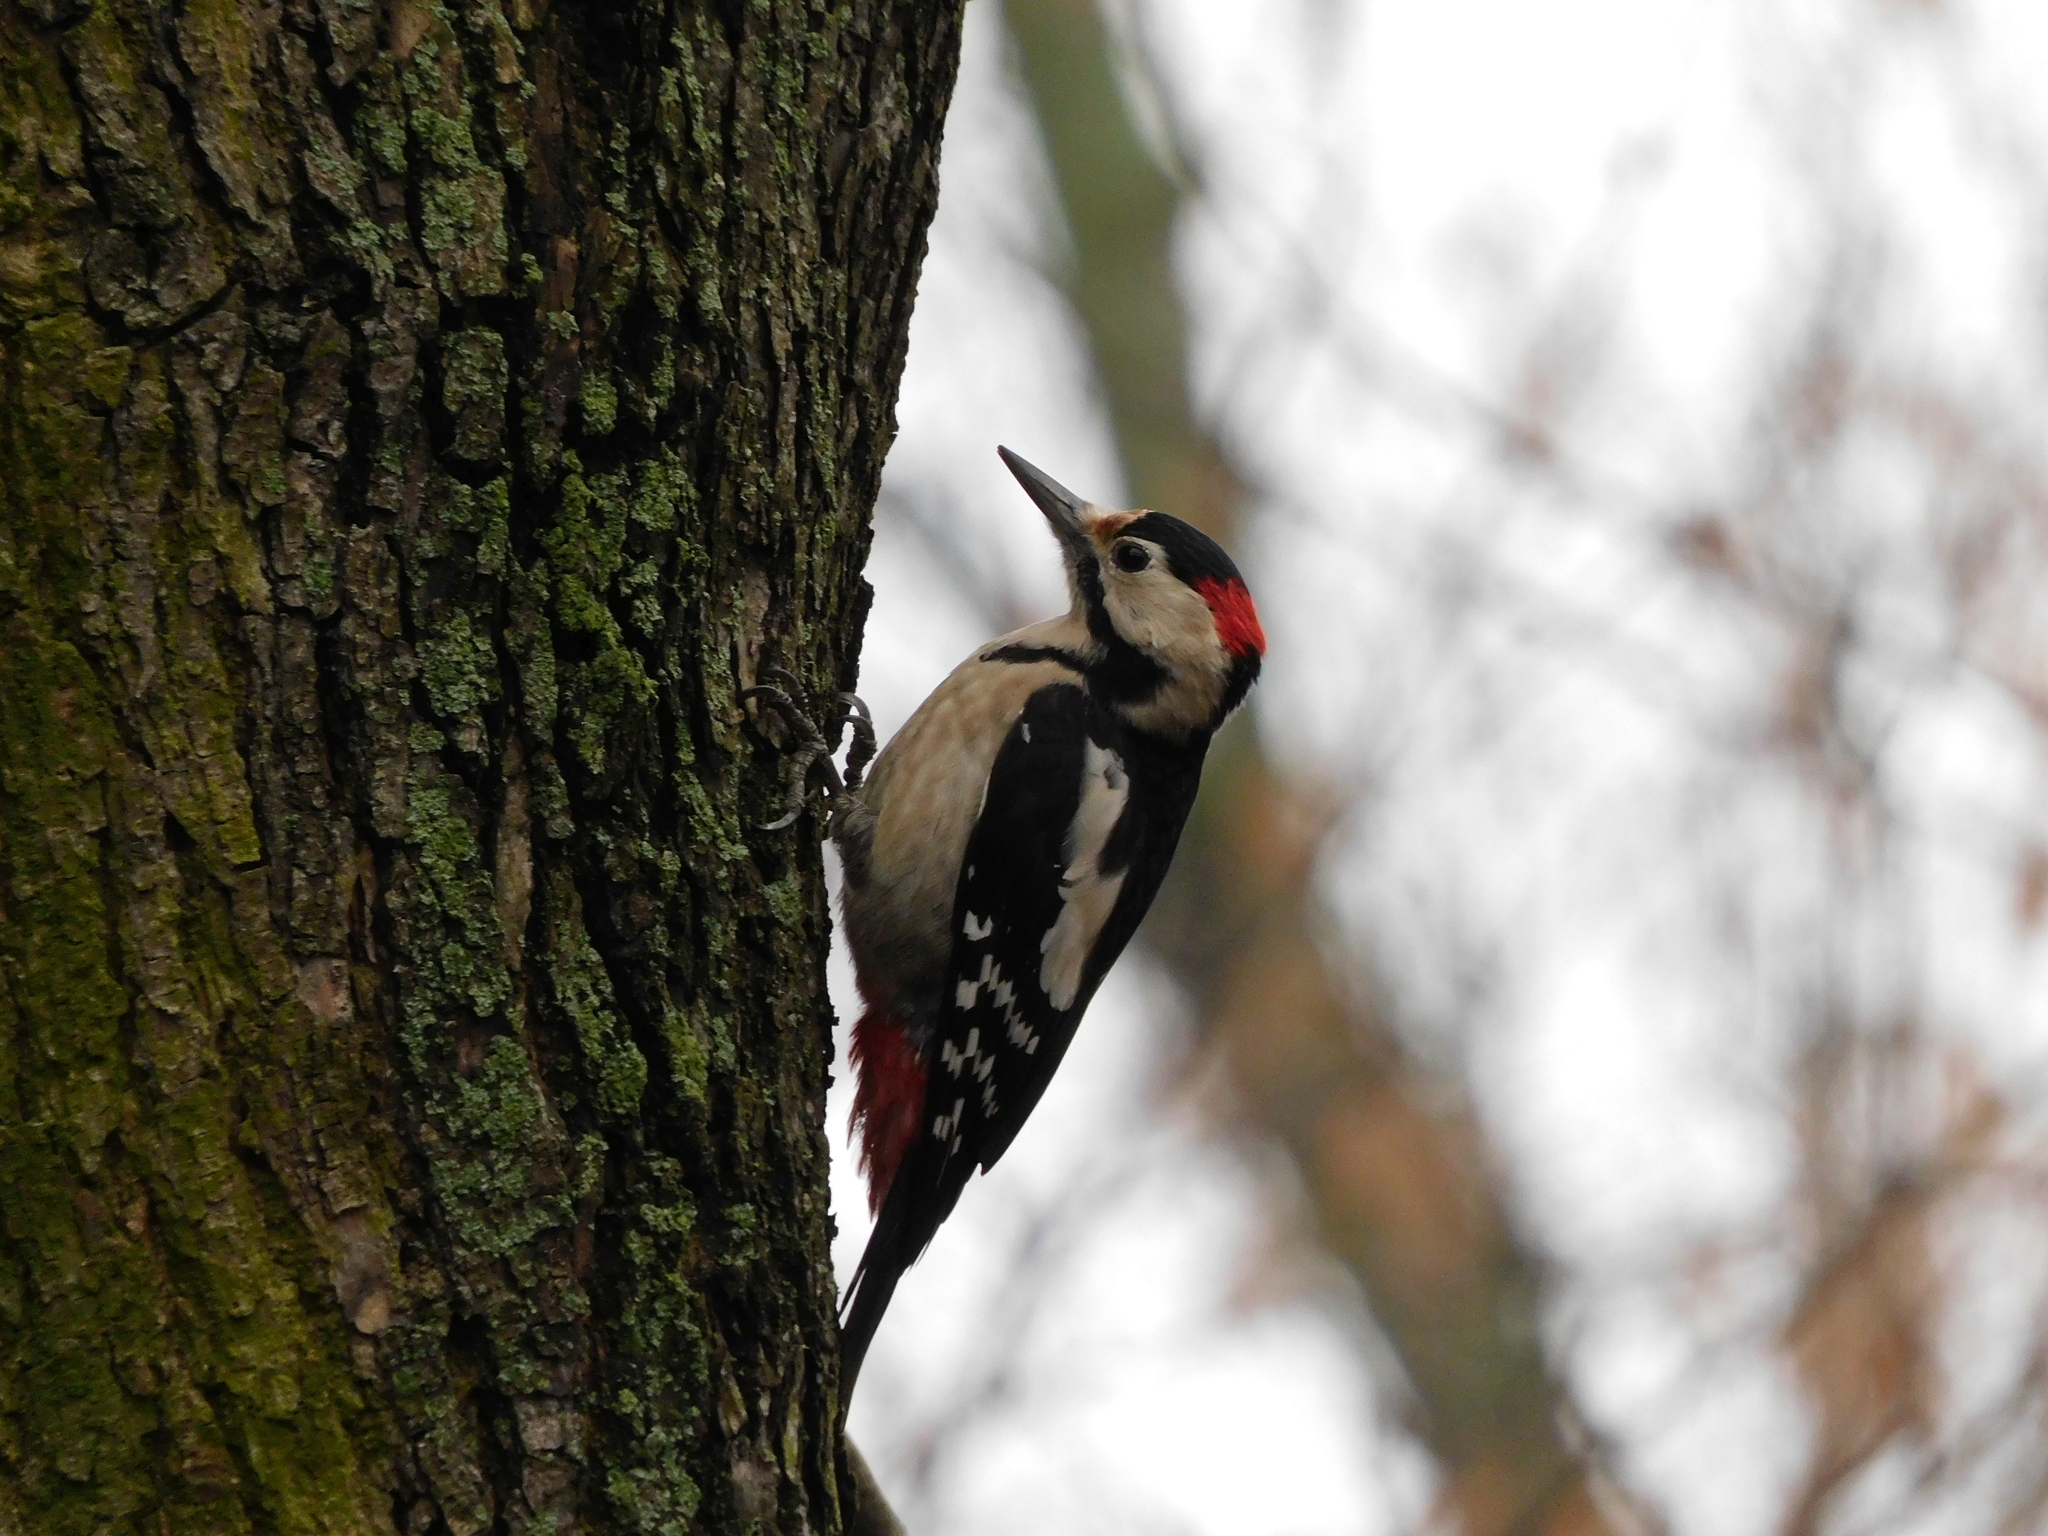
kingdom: Animalia
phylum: Chordata
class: Aves
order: Piciformes
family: Picidae
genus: Dendrocopos
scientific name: Dendrocopos syriacus
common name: Syrian woodpecker
